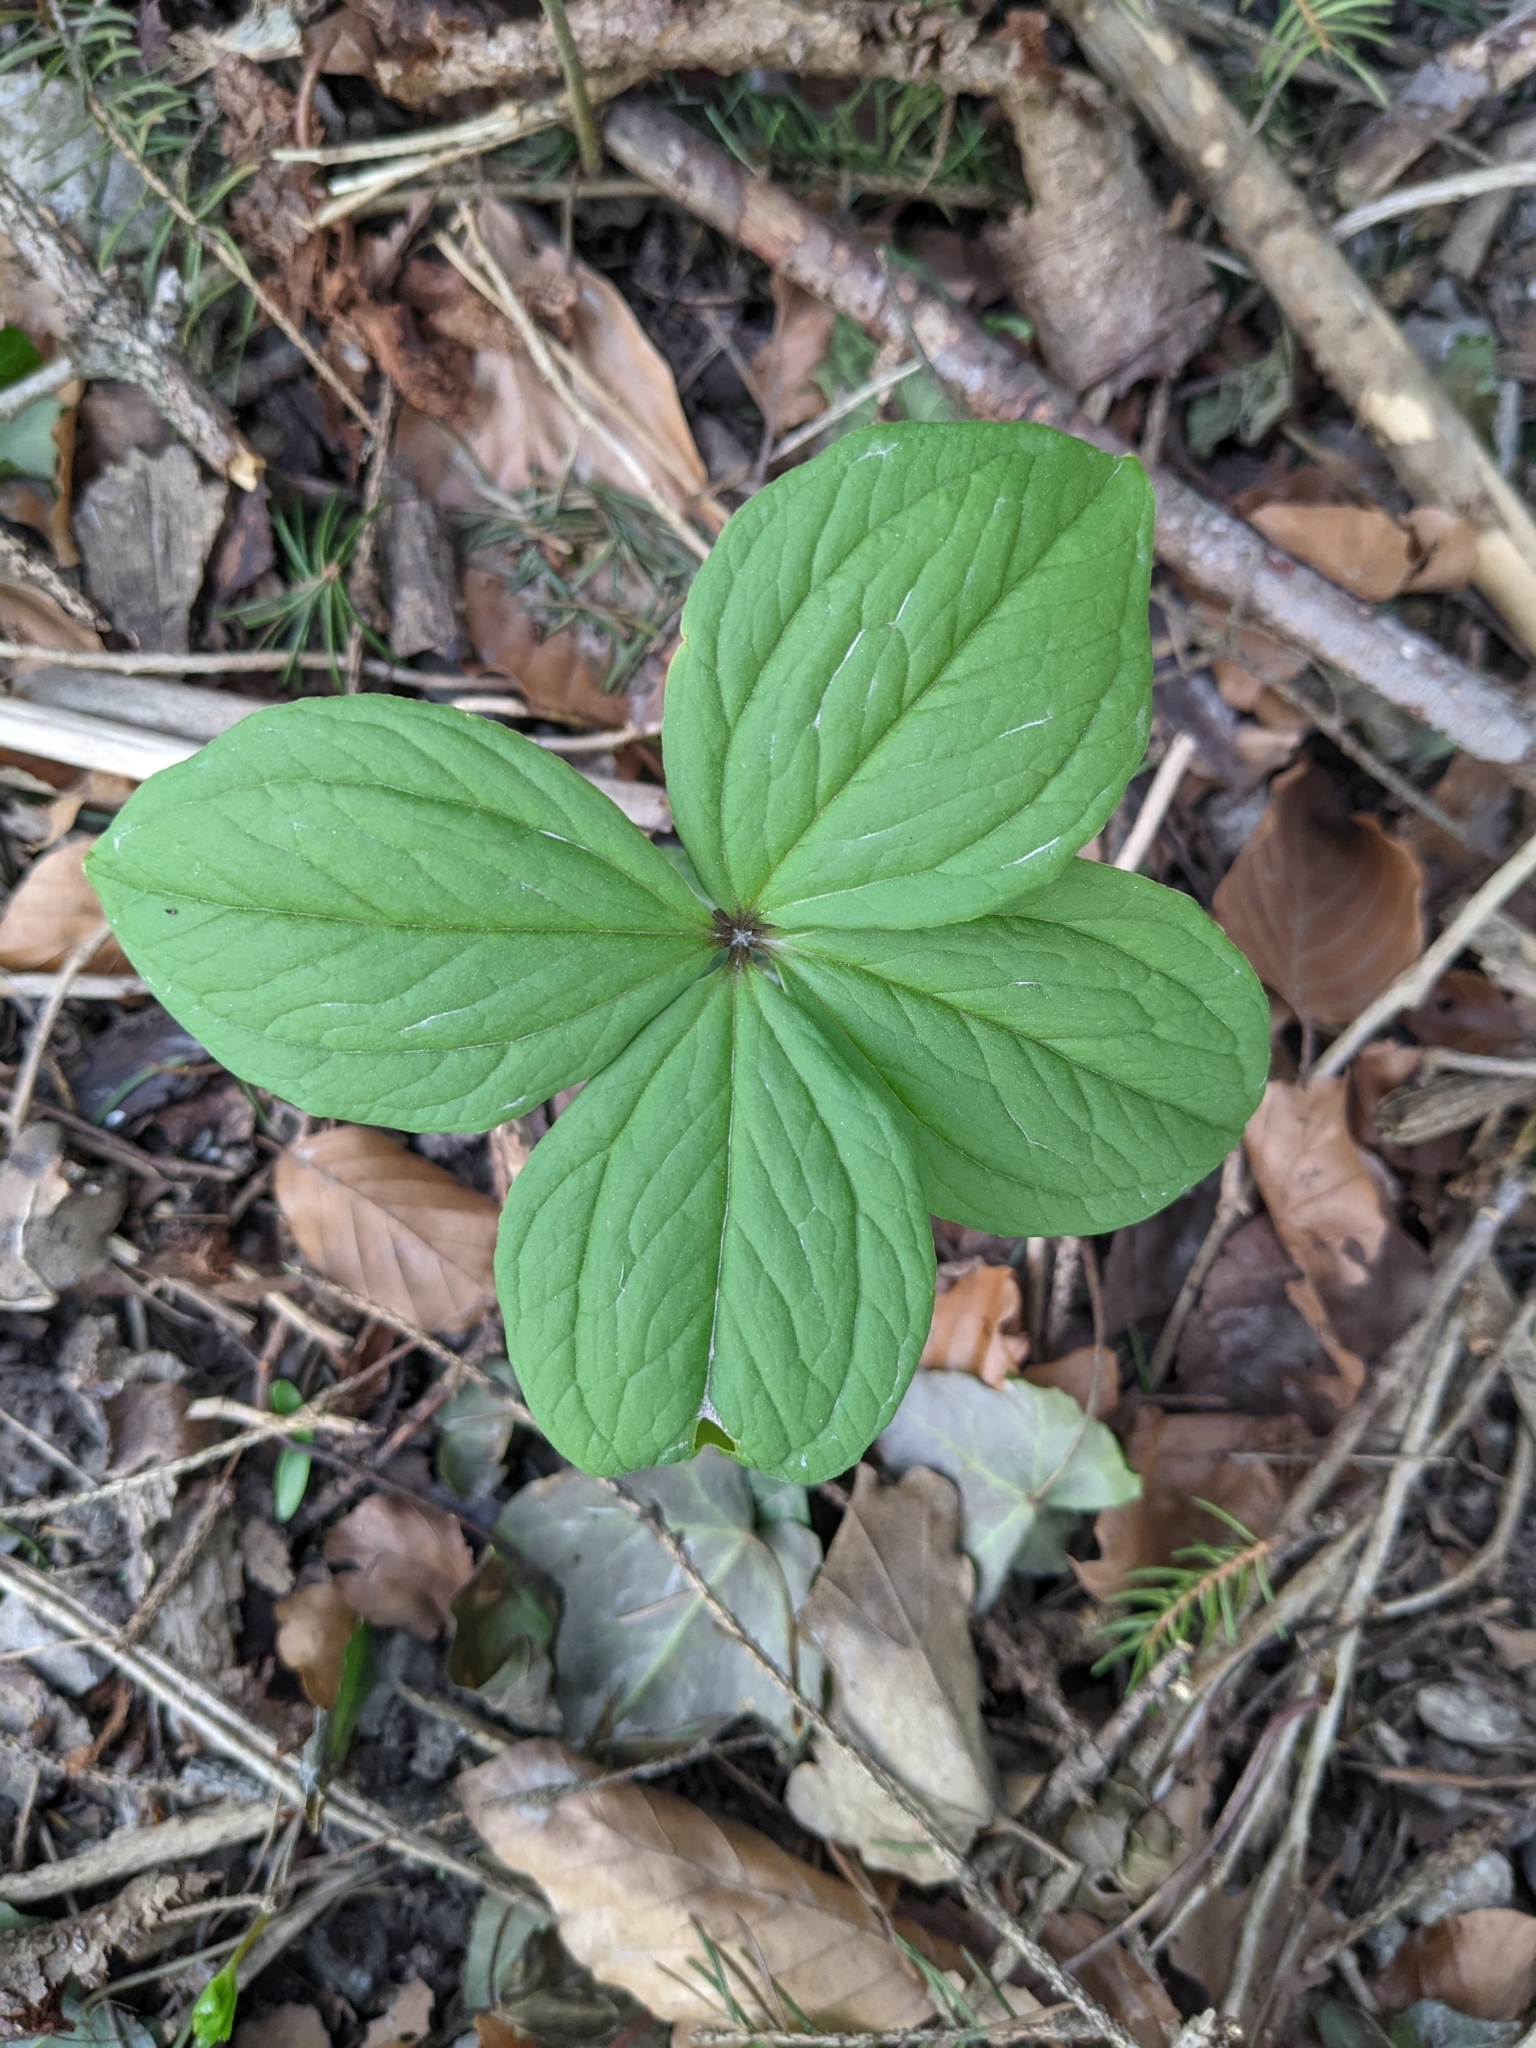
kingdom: Plantae
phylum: Tracheophyta
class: Liliopsida
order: Liliales
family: Melanthiaceae
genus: Paris
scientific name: Paris quadrifolia
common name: Herb-paris
